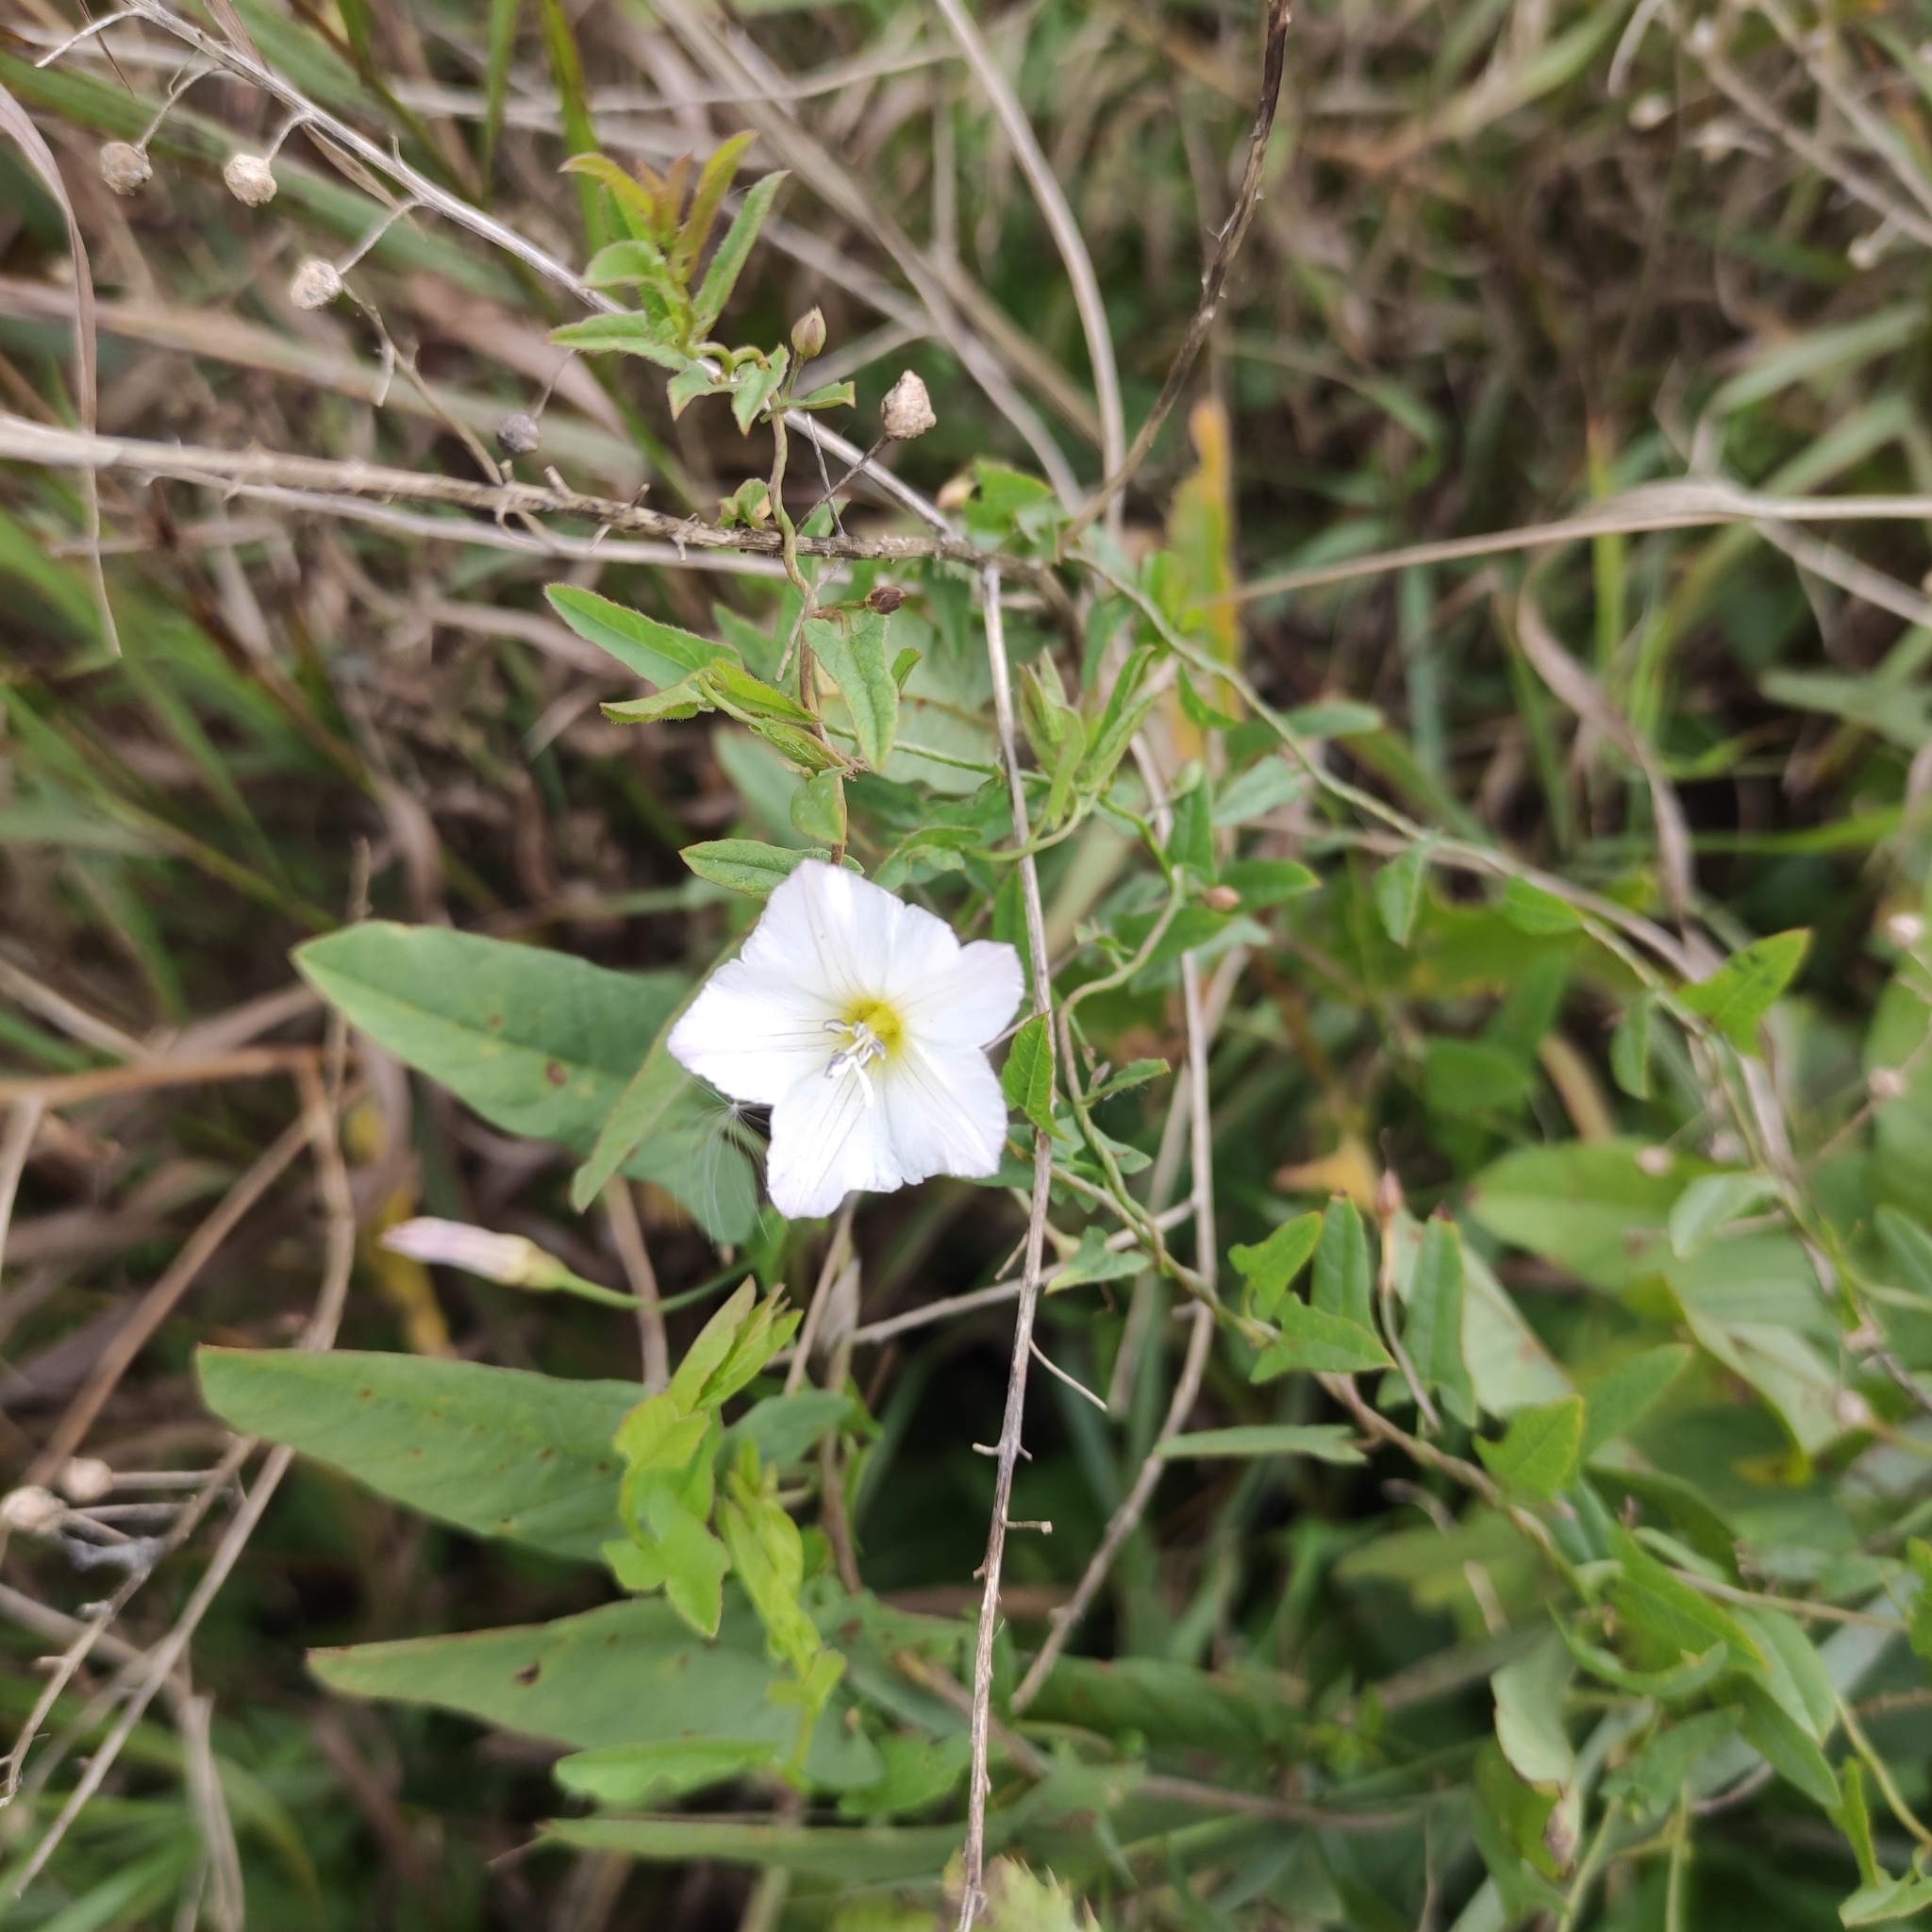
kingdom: Plantae
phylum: Tracheophyta
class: Magnoliopsida
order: Solanales
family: Convolvulaceae
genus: Convolvulus
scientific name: Convolvulus arvensis
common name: Field bindweed
